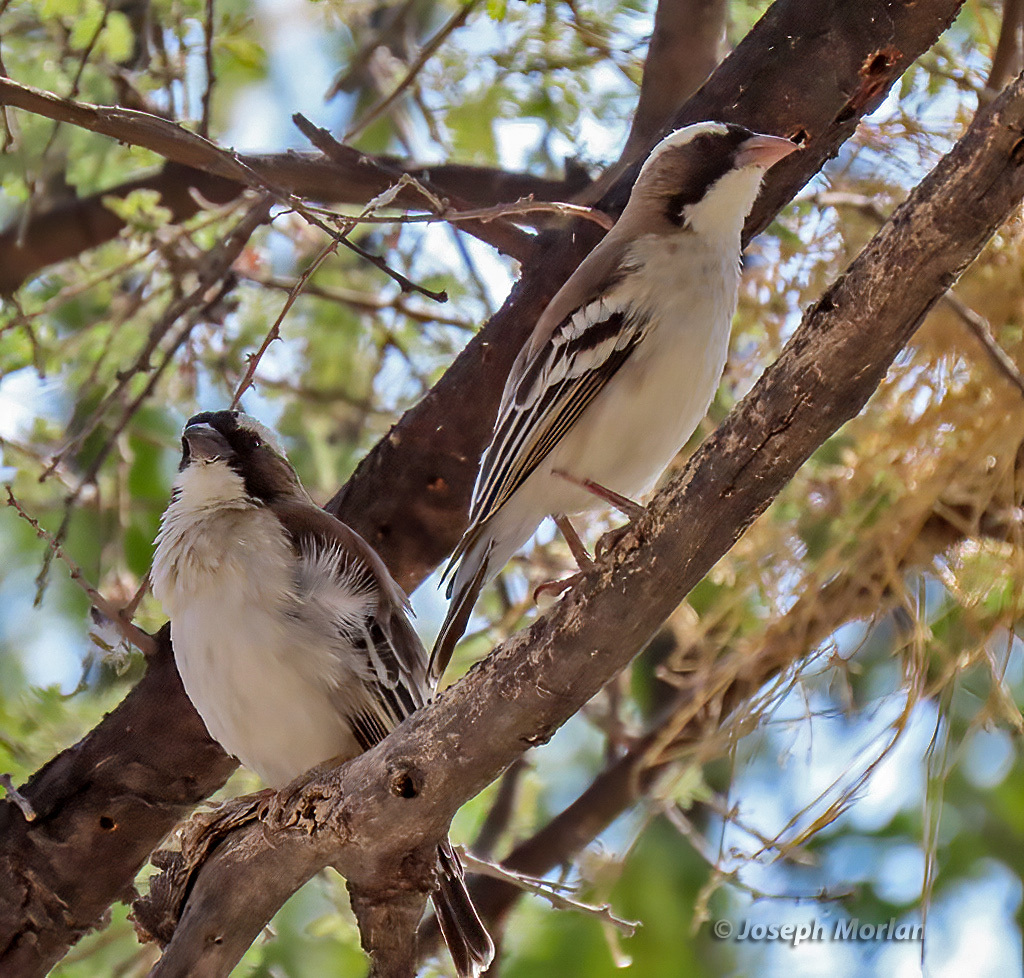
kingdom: Animalia
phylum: Chordata
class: Aves
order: Passeriformes
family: Passeridae
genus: Plocepasser
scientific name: Plocepasser mahali
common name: White-browed sparrow-weaver
